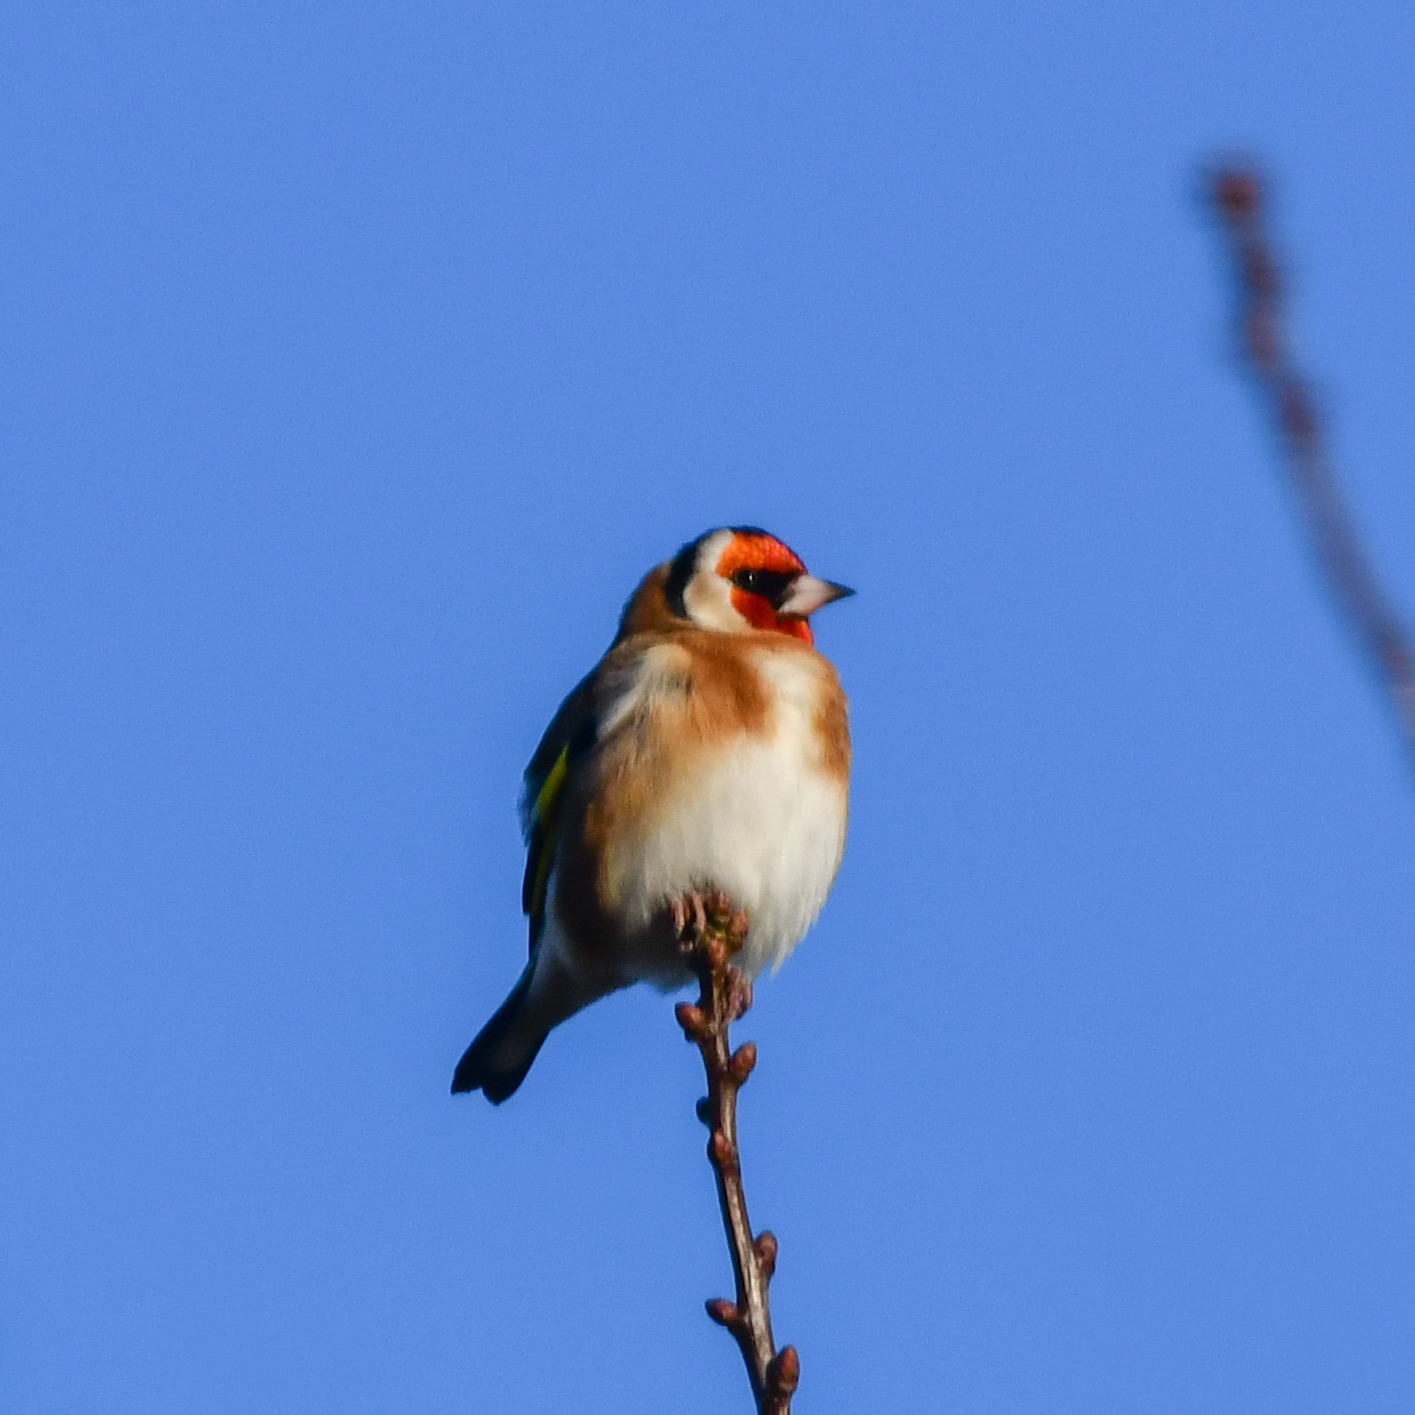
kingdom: Animalia
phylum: Chordata
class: Aves
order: Passeriformes
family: Fringillidae
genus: Carduelis
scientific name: Carduelis carduelis
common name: European goldfinch
